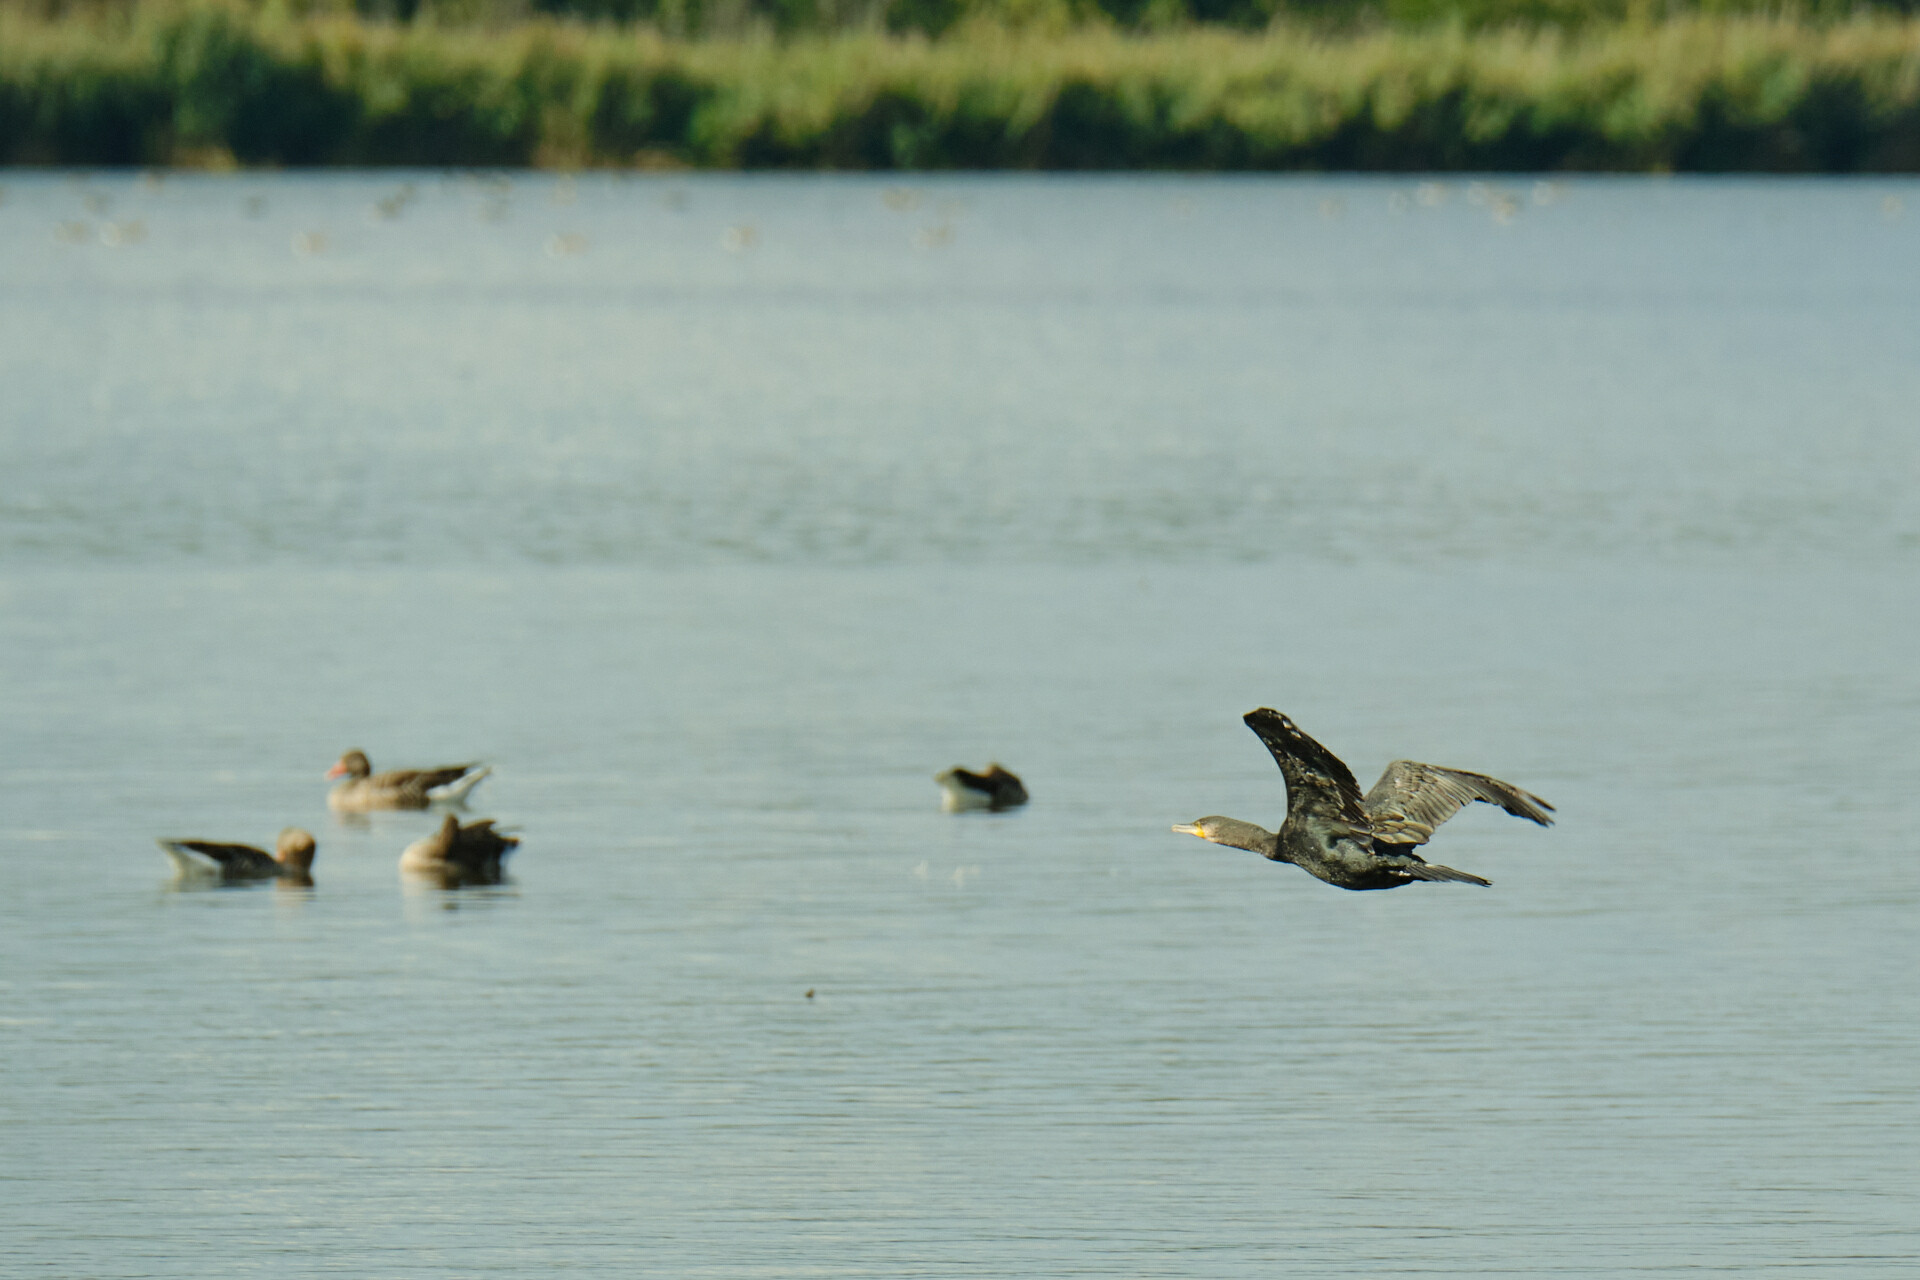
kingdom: Animalia
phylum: Chordata
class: Aves
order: Suliformes
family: Phalacrocoracidae
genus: Phalacrocorax
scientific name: Phalacrocorax carbo
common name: Great cormorant
